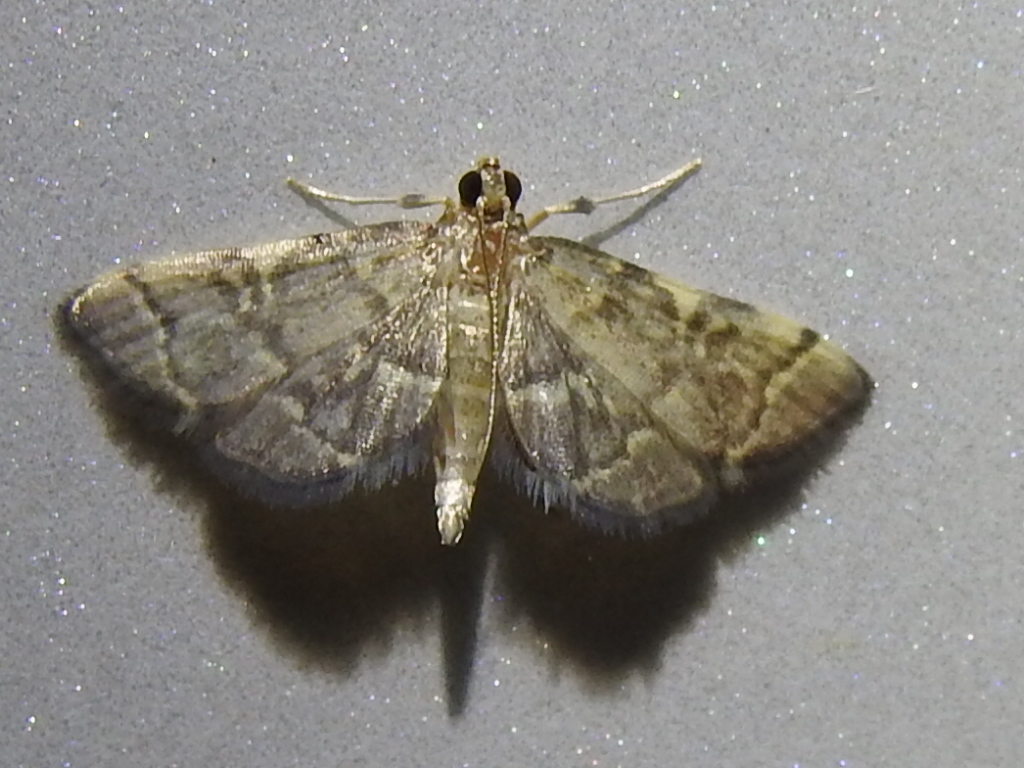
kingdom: Animalia
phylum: Arthropoda
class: Insecta
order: Lepidoptera
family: Crambidae
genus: Anageshna
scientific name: Anageshna primordialis
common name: Yellow-spotted webworm moth
